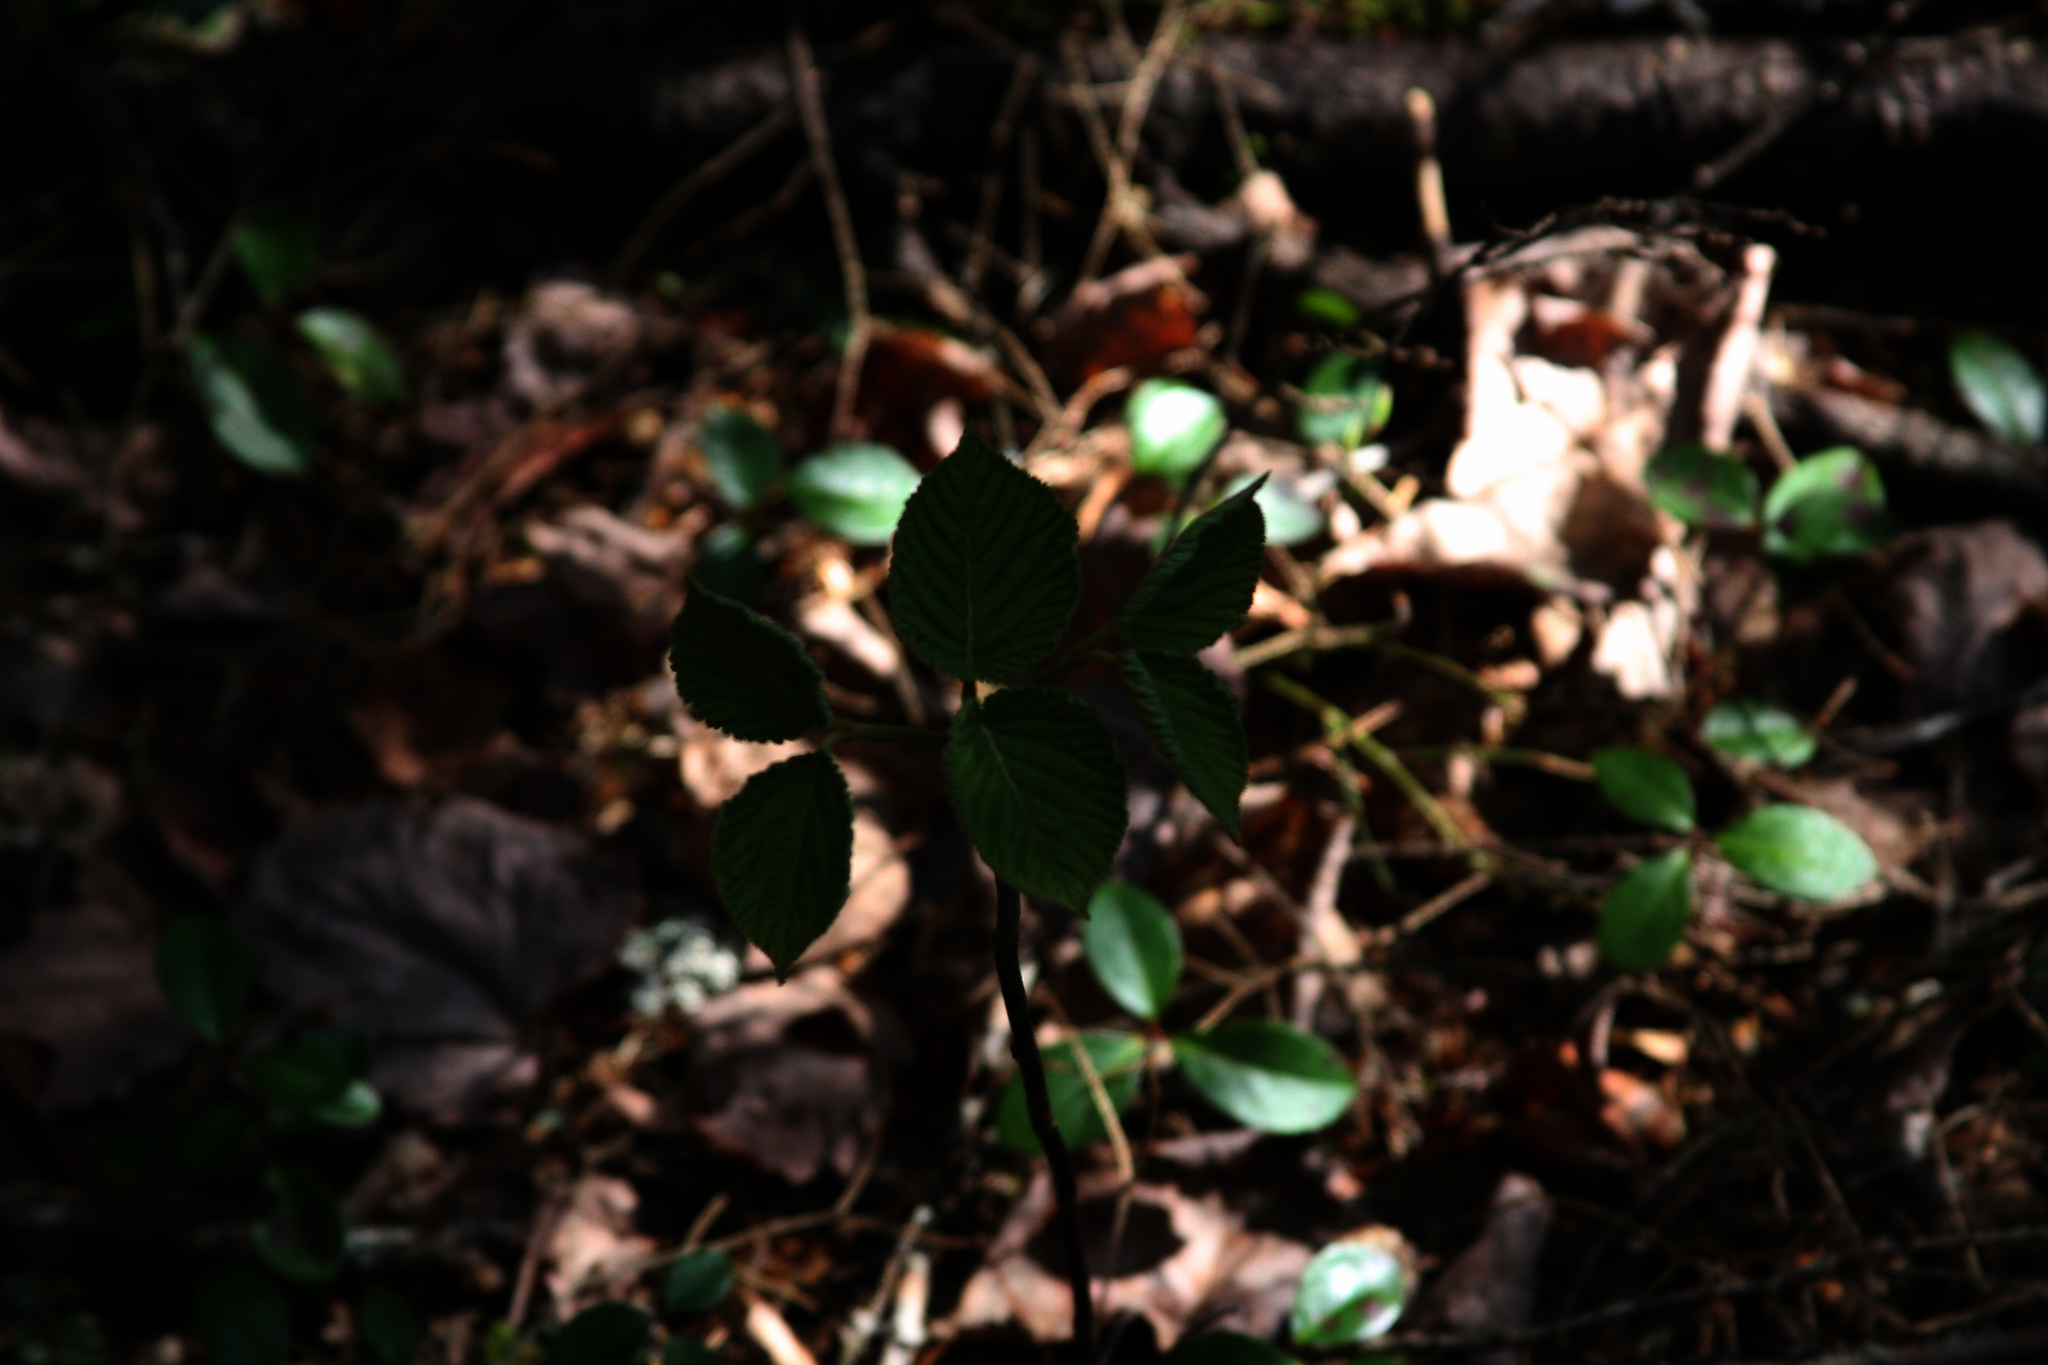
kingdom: Plantae
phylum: Tracheophyta
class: Magnoliopsida
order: Dipsacales
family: Viburnaceae
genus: Viburnum
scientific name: Viburnum lantanoides
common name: Hobblebush
